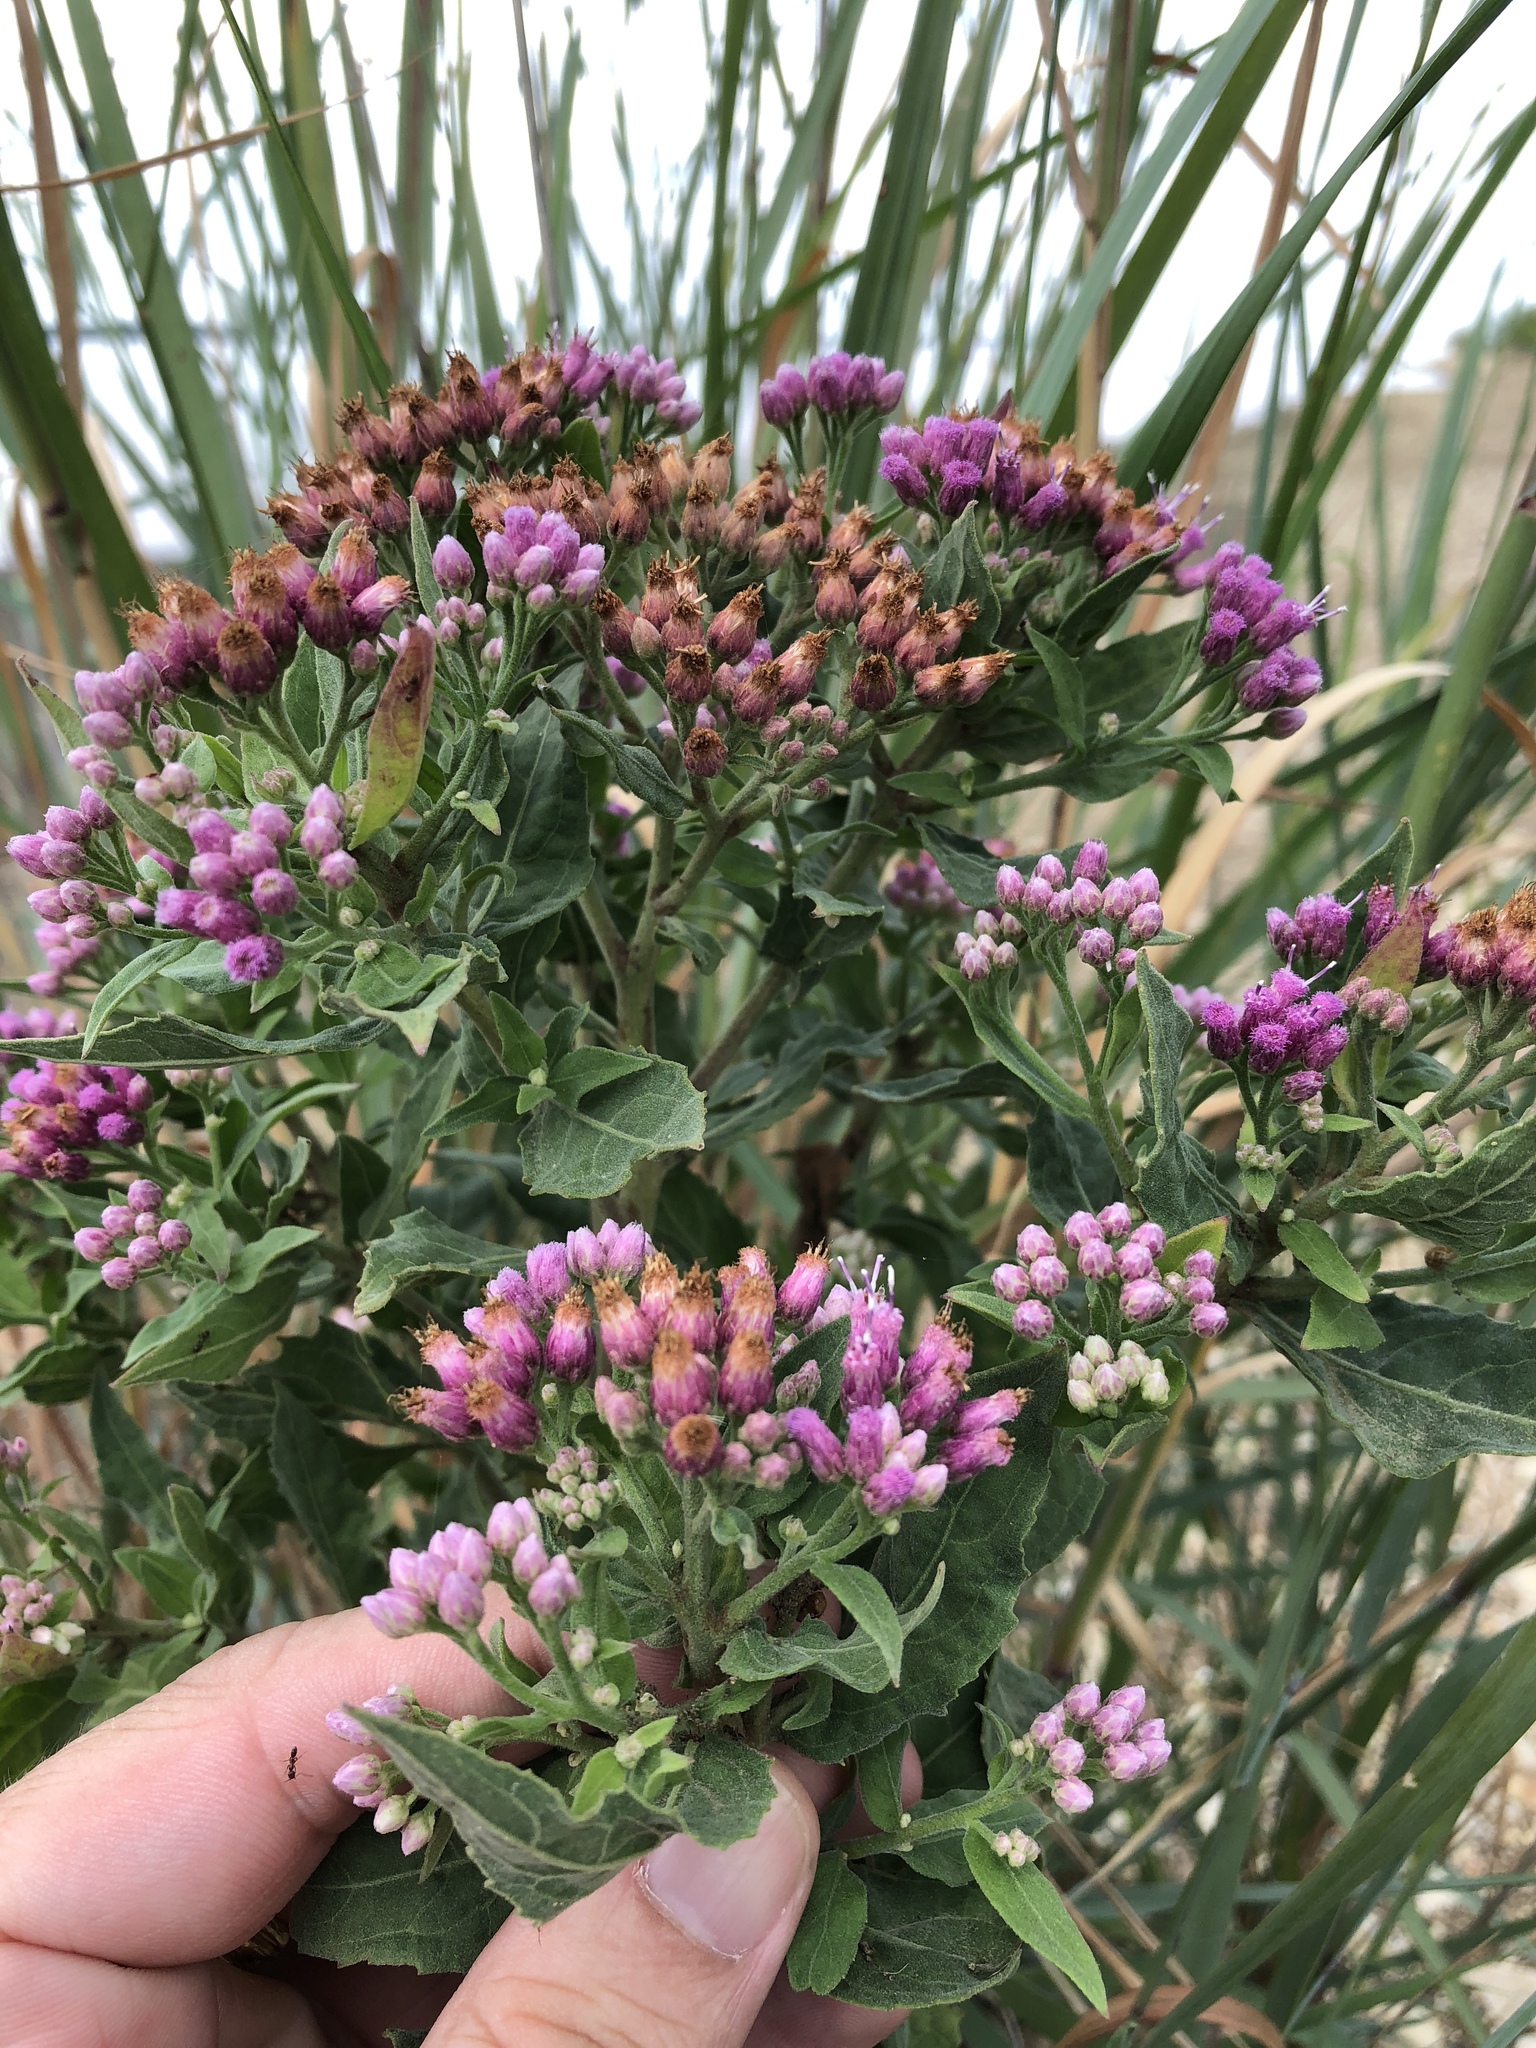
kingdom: Plantae
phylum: Tracheophyta
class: Magnoliopsida
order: Asterales
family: Asteraceae
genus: Pluchea
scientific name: Pluchea odorata
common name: Saltmarsh fleabane
